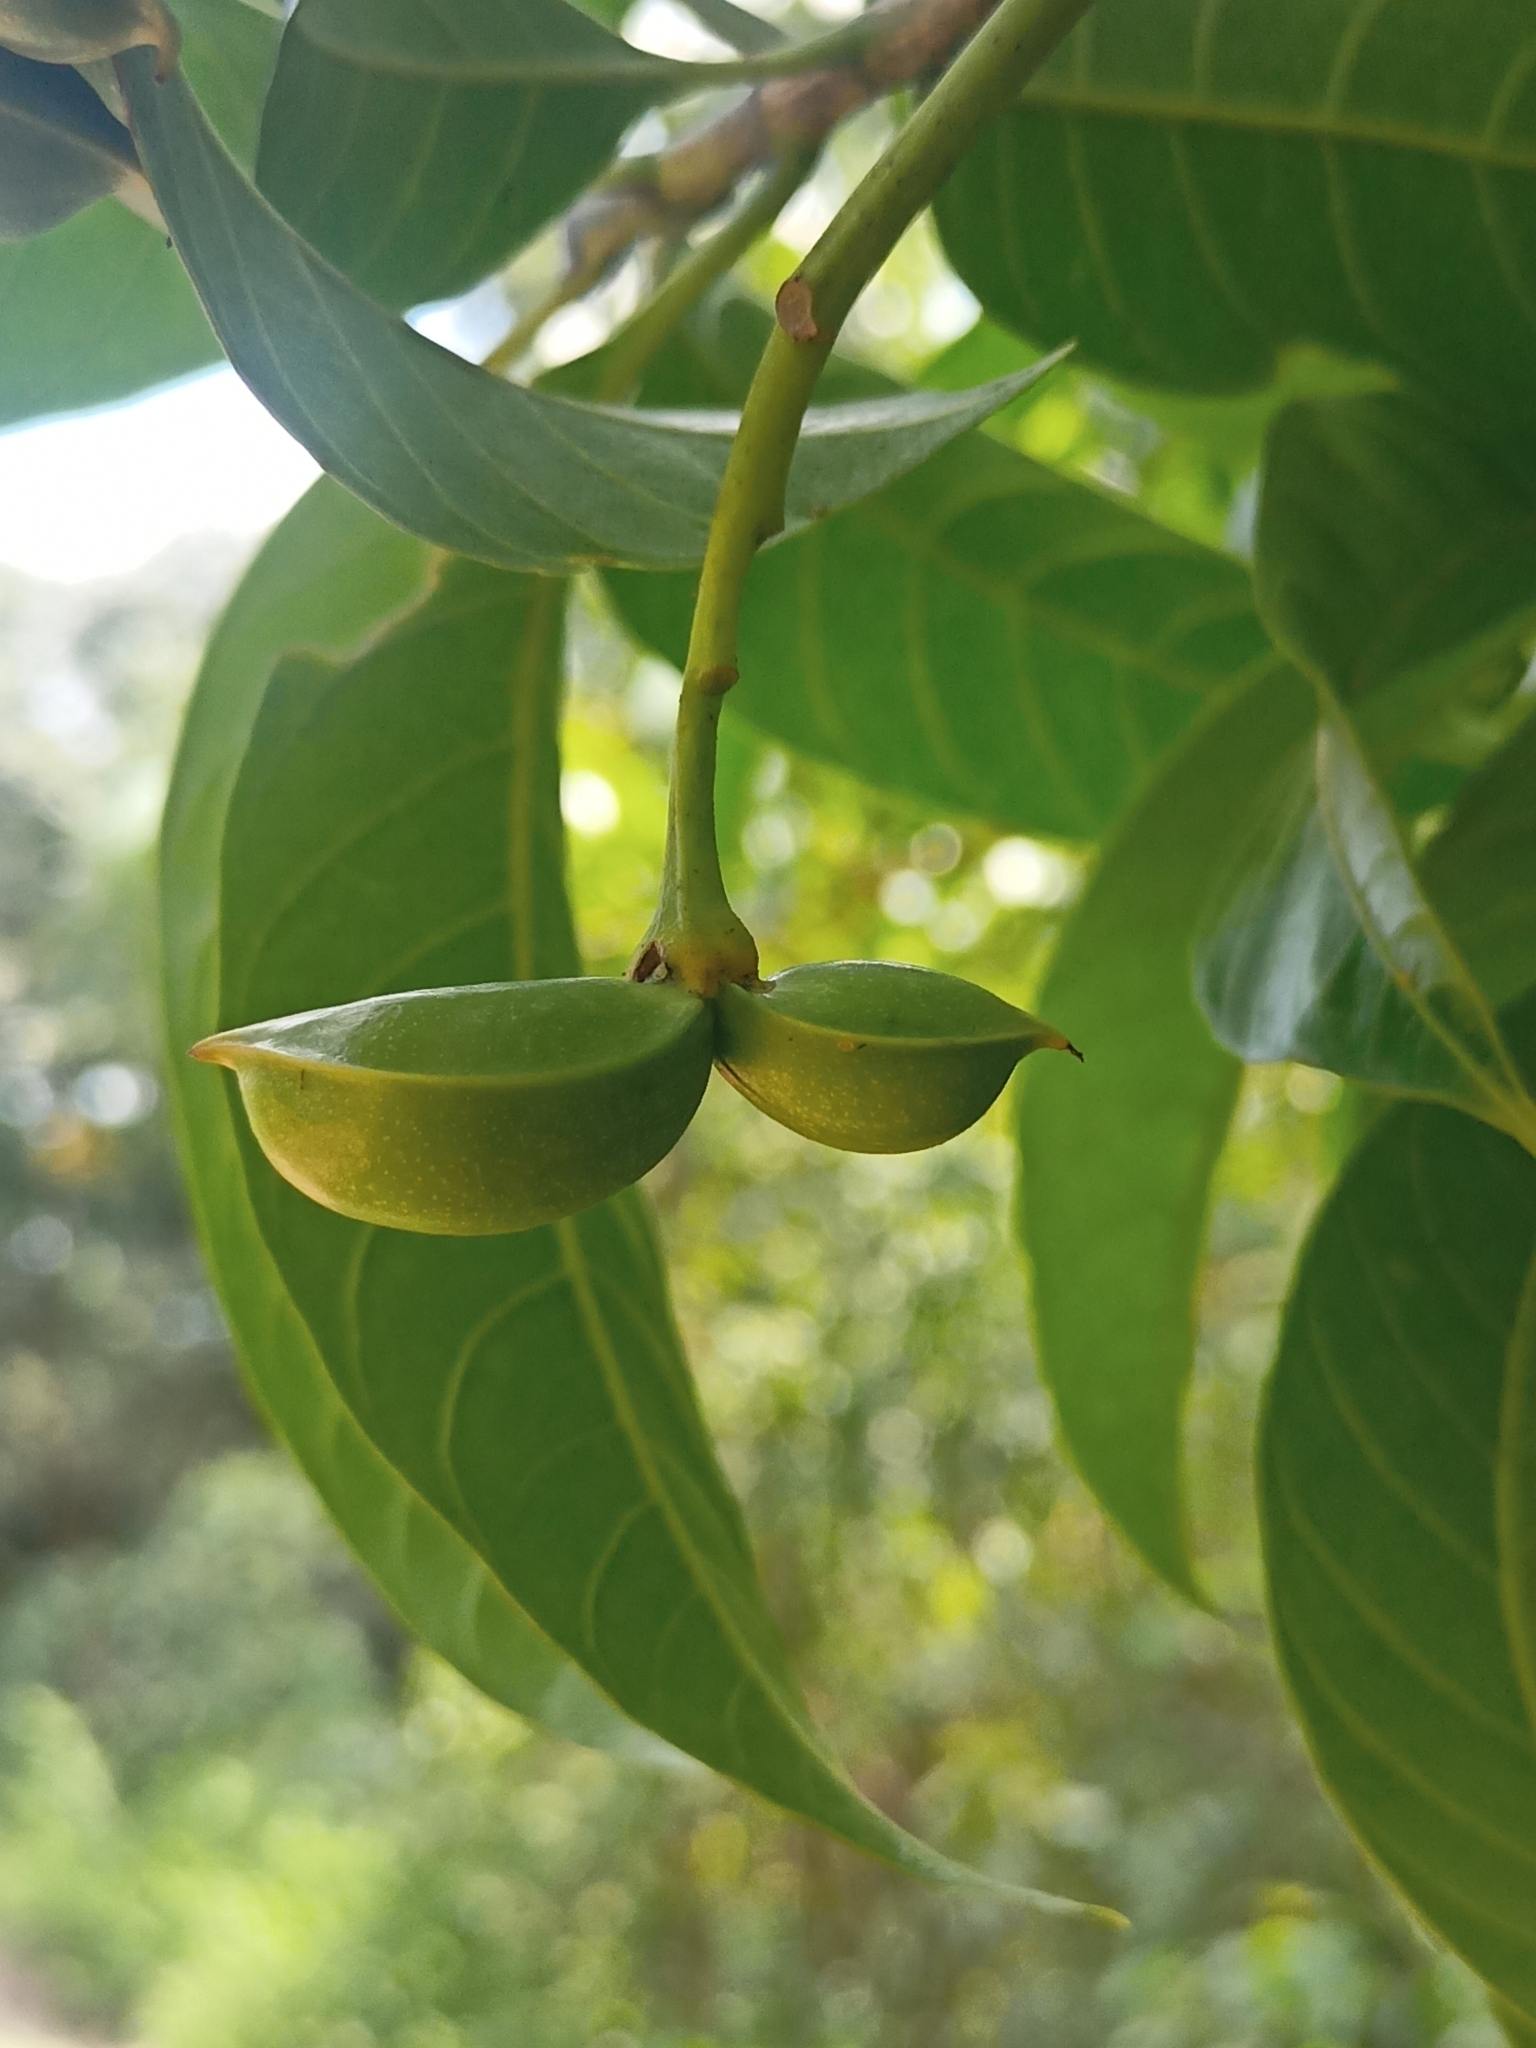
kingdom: Plantae
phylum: Tracheophyta
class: Magnoliopsida
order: Gentianales
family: Apocynaceae
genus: Tabernaemontana
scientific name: Tabernaemontana alternifolia
